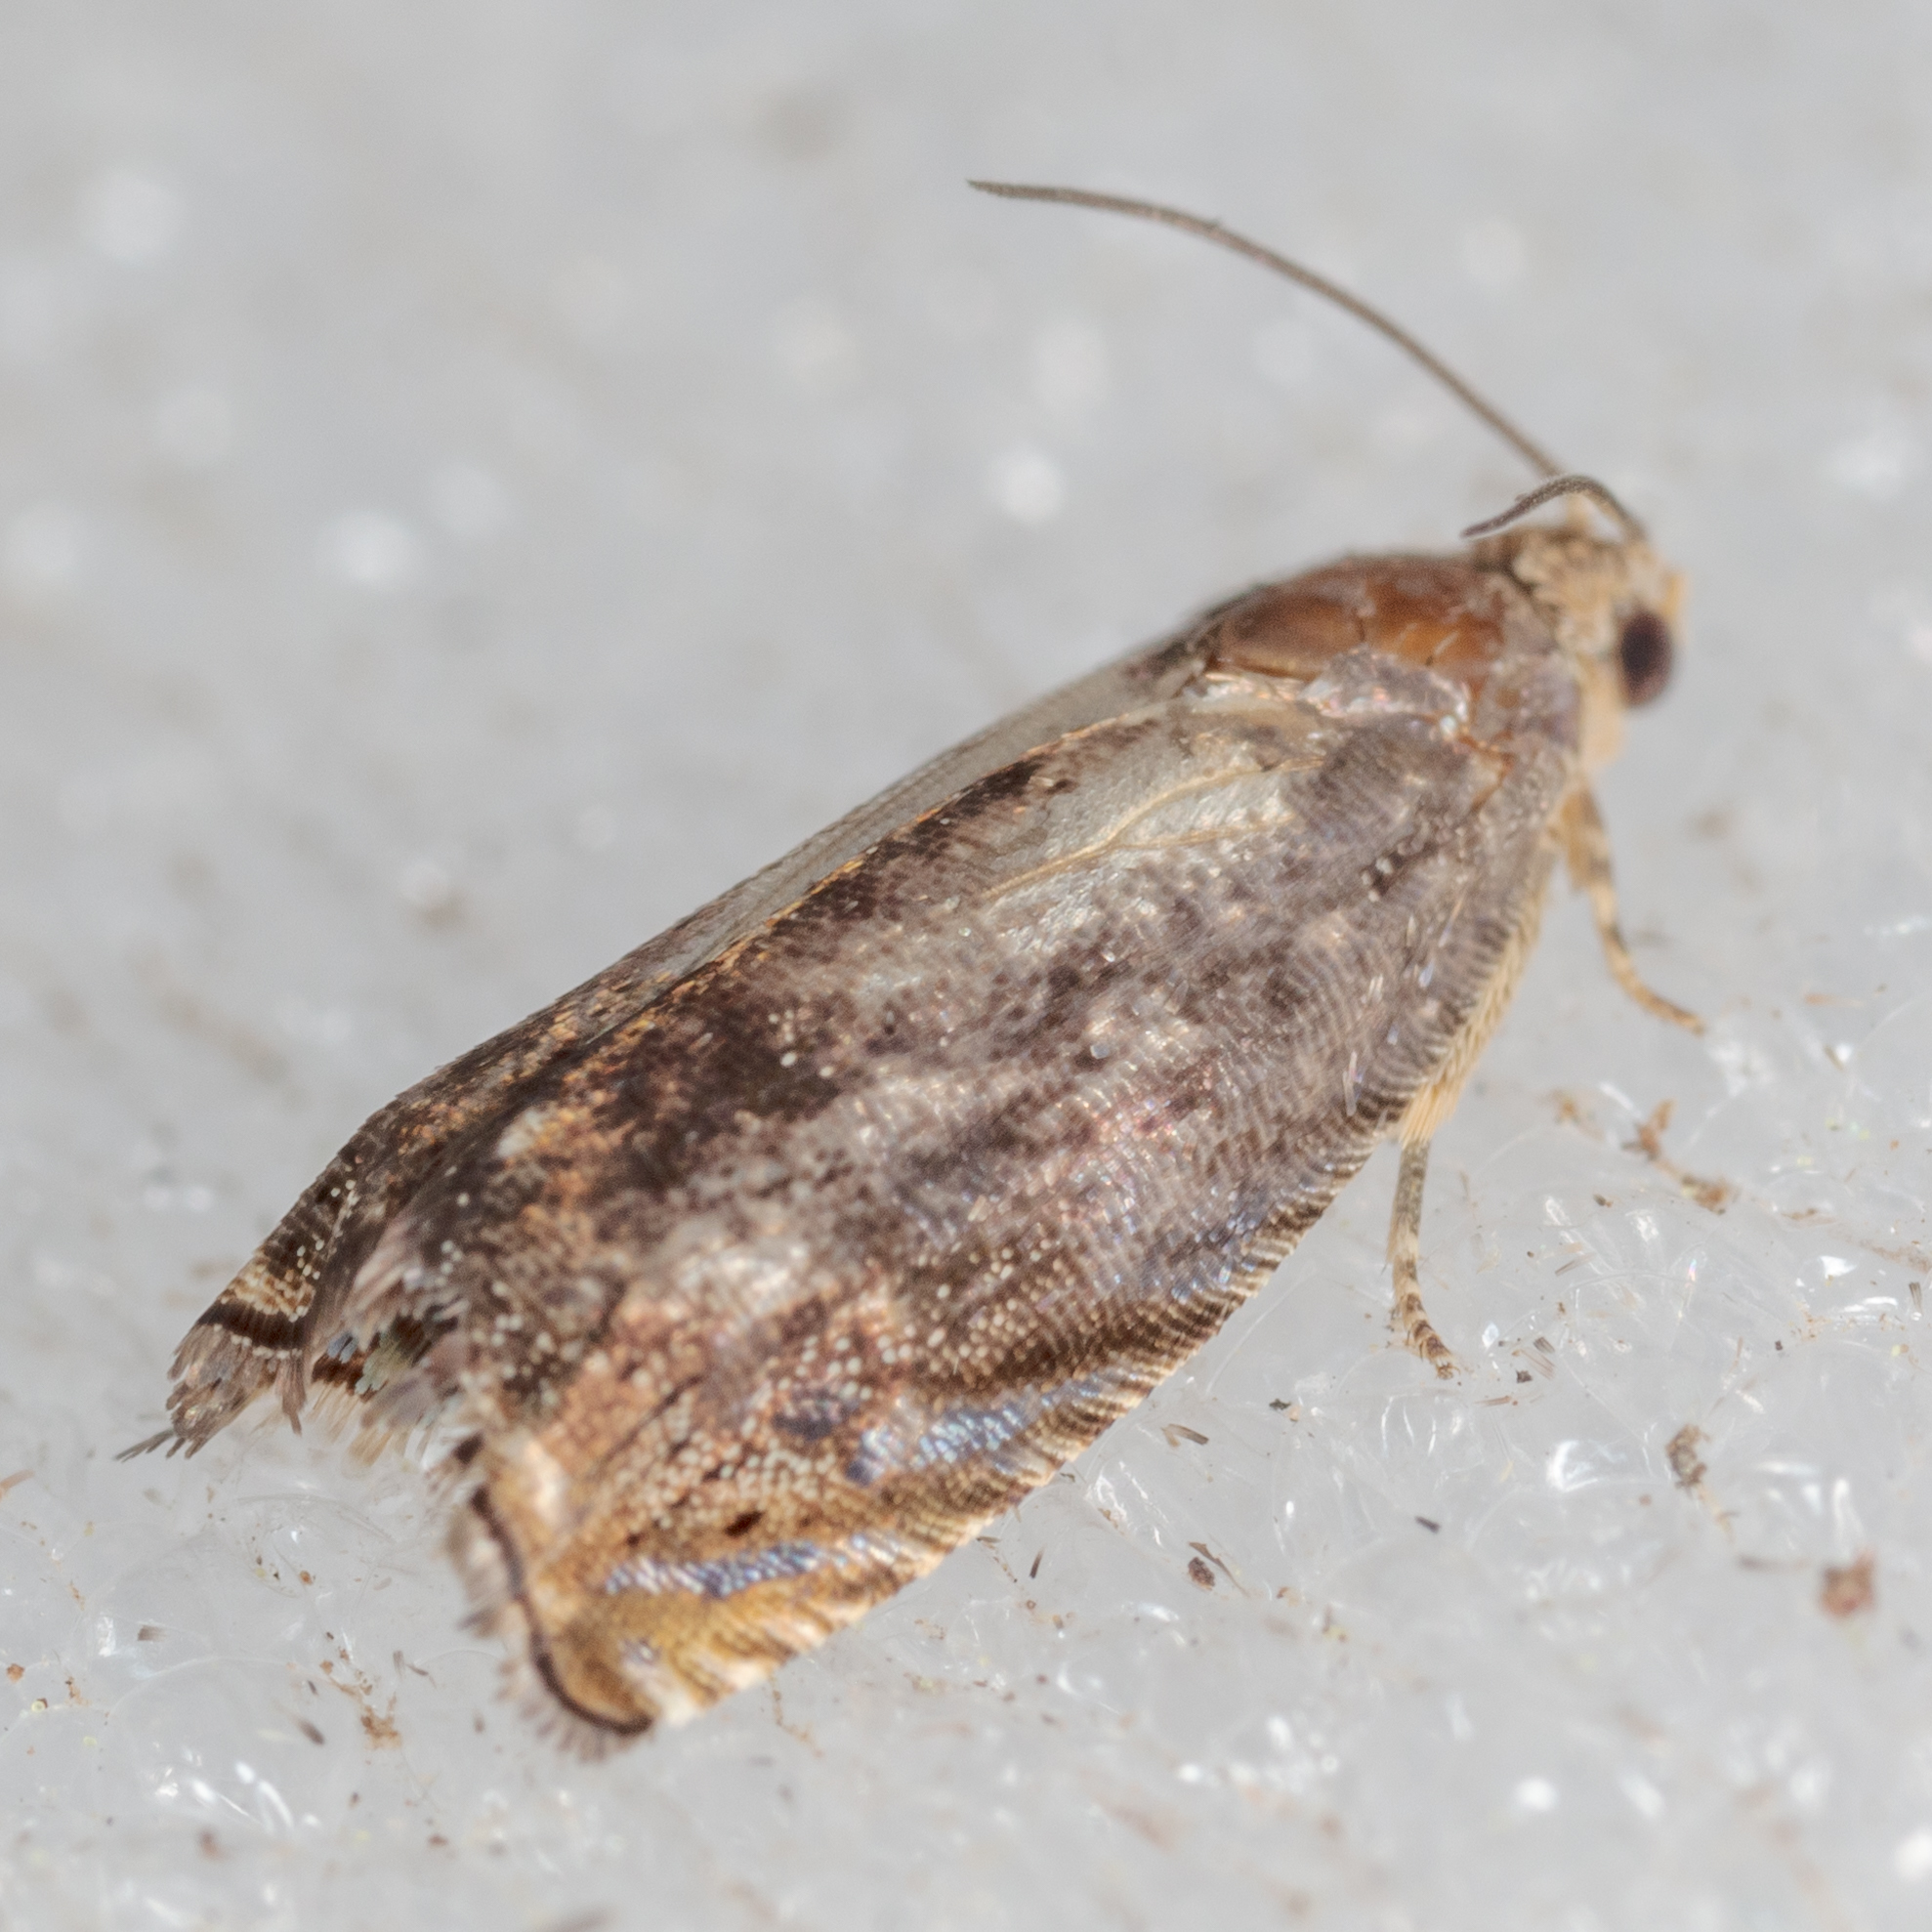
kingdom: Animalia
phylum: Arthropoda
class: Insecta
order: Lepidoptera
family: Tortricidae
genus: Cydia
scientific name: Cydia caryana
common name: Hickory shuckworm moth
